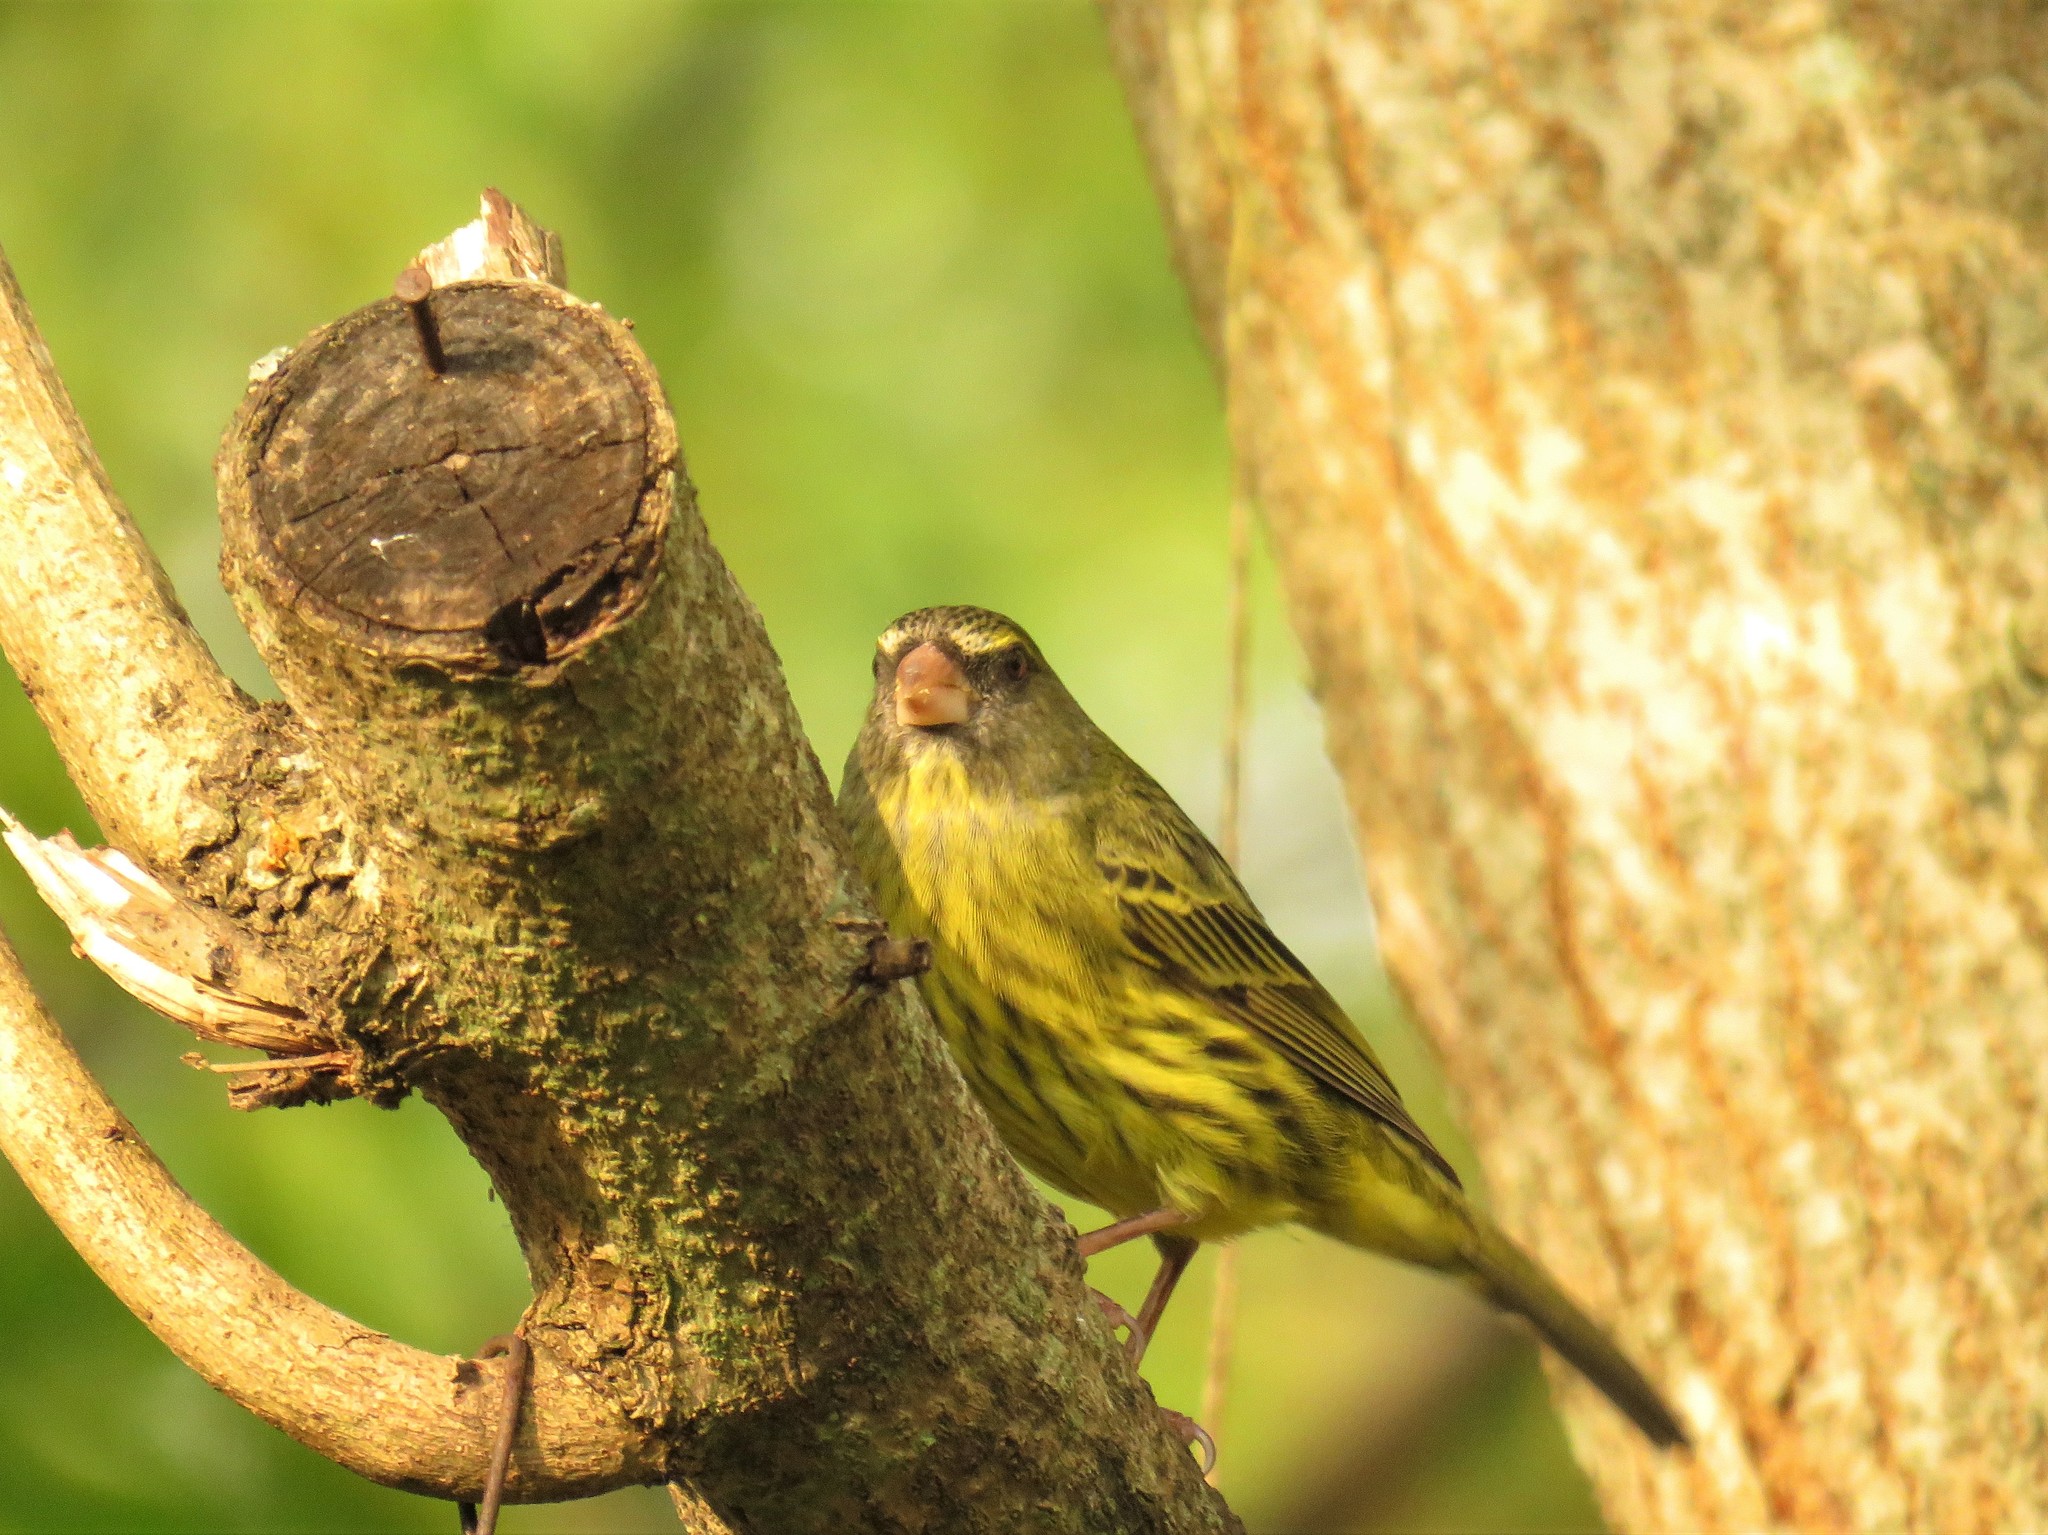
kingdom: Animalia
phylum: Chordata
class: Aves
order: Passeriformes
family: Fringillidae
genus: Crithagra
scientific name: Crithagra scotops
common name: Forest canary
